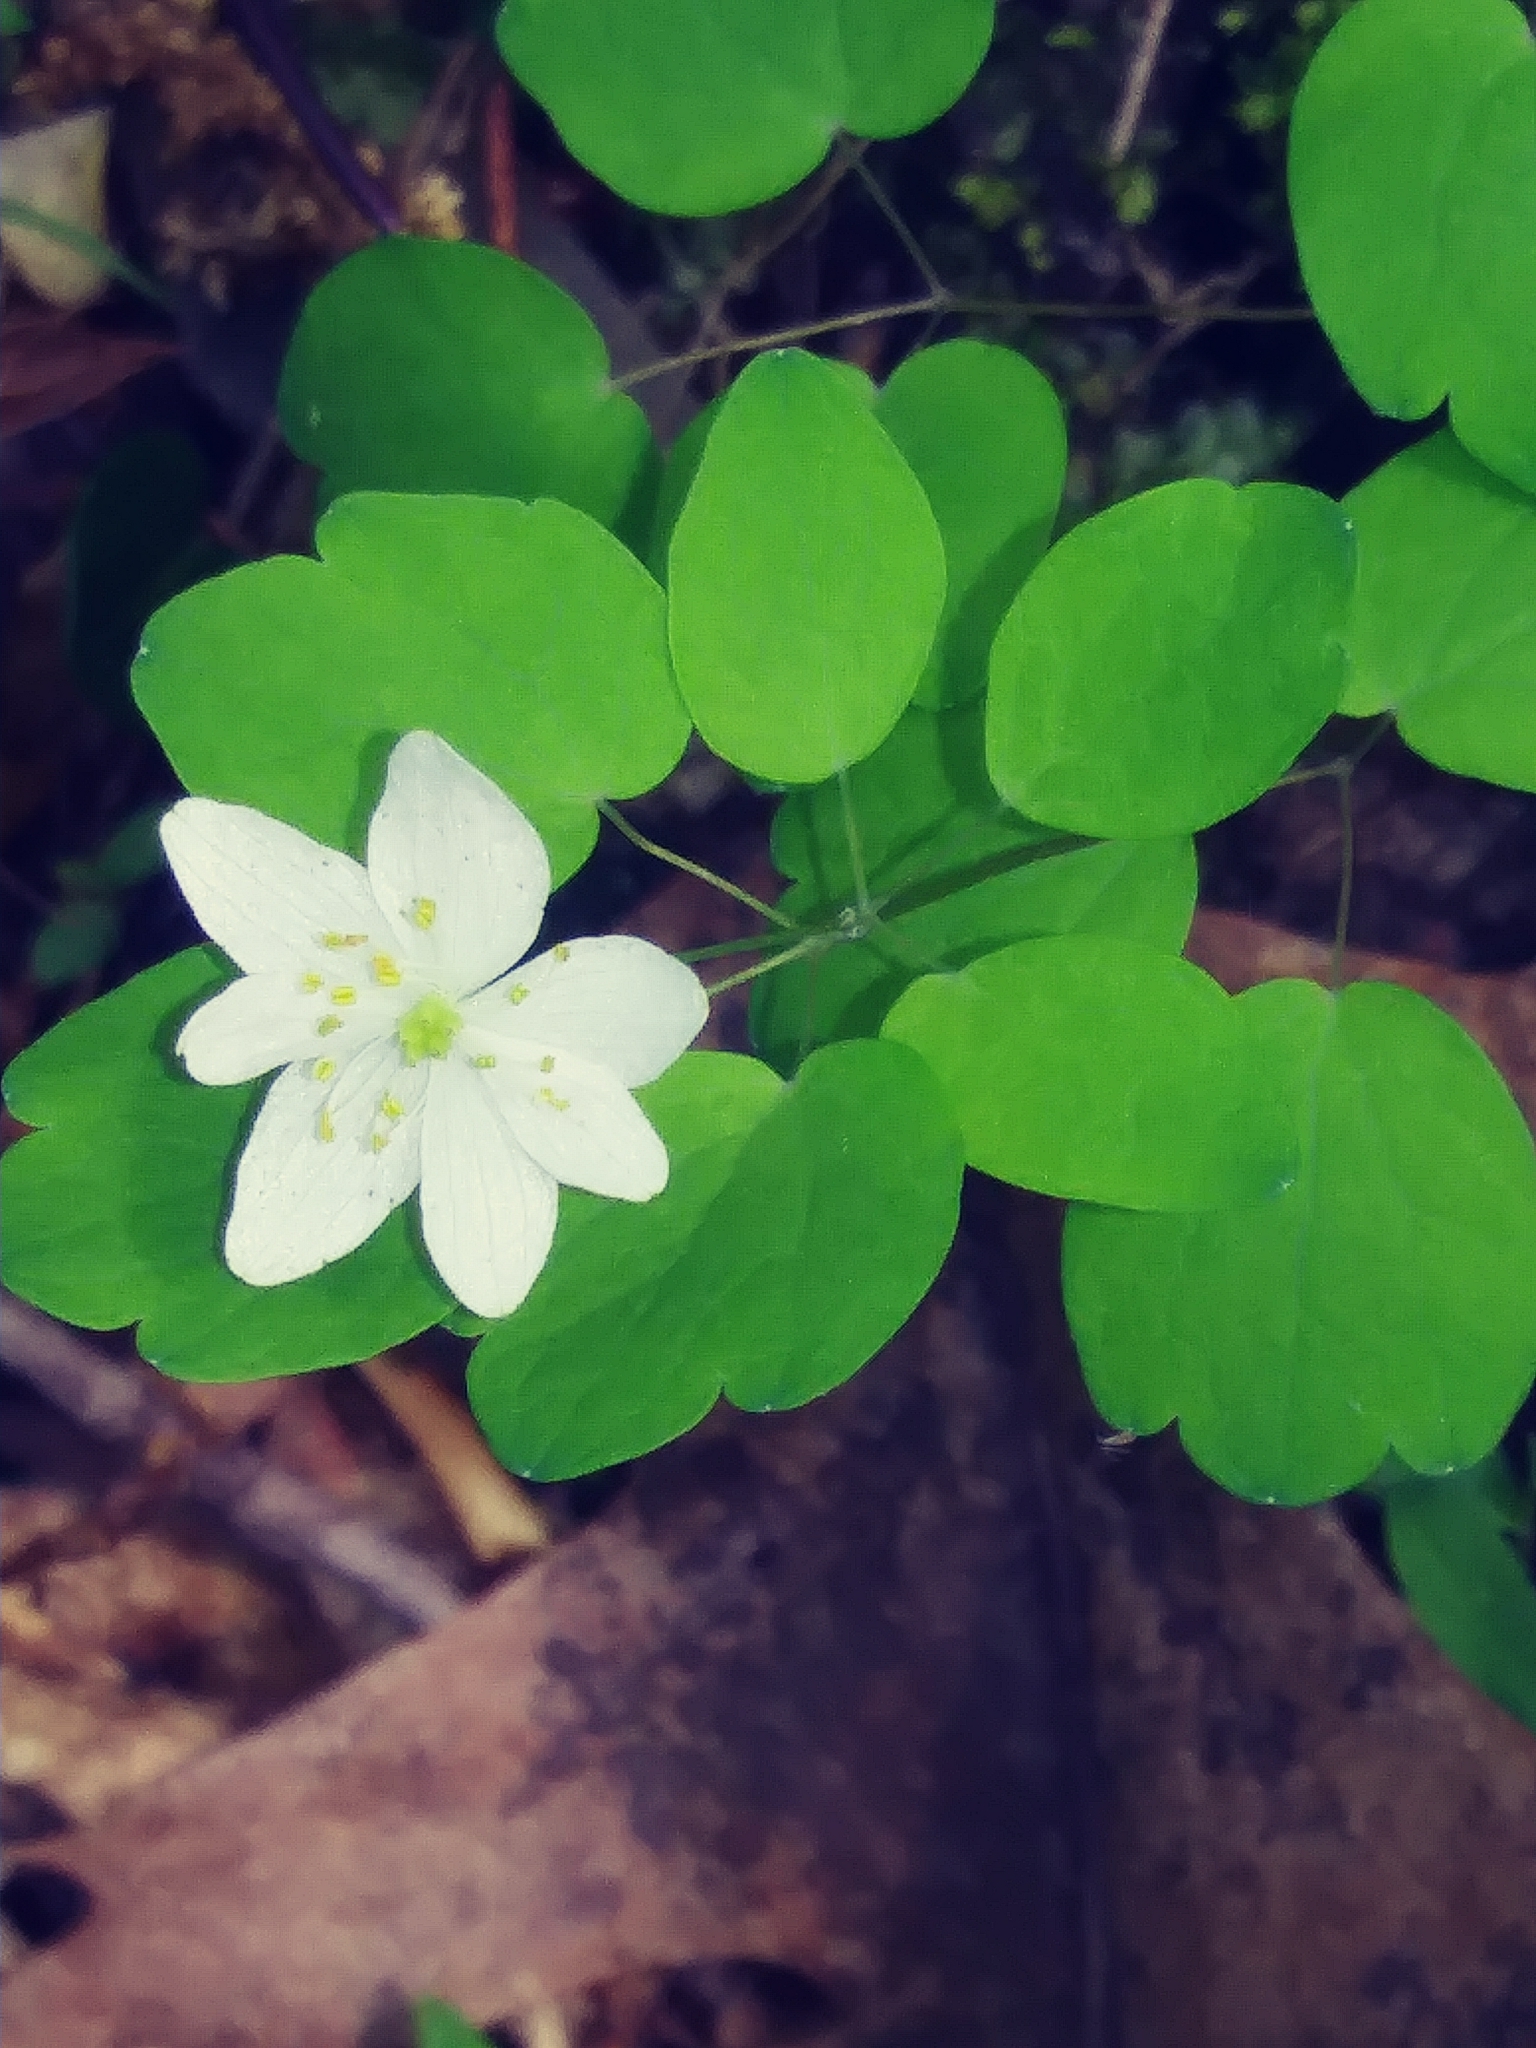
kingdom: Plantae
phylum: Tracheophyta
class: Magnoliopsida
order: Ranunculales
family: Ranunculaceae
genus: Thalictrum
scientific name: Thalictrum thalictroides
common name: Rue-anemone
